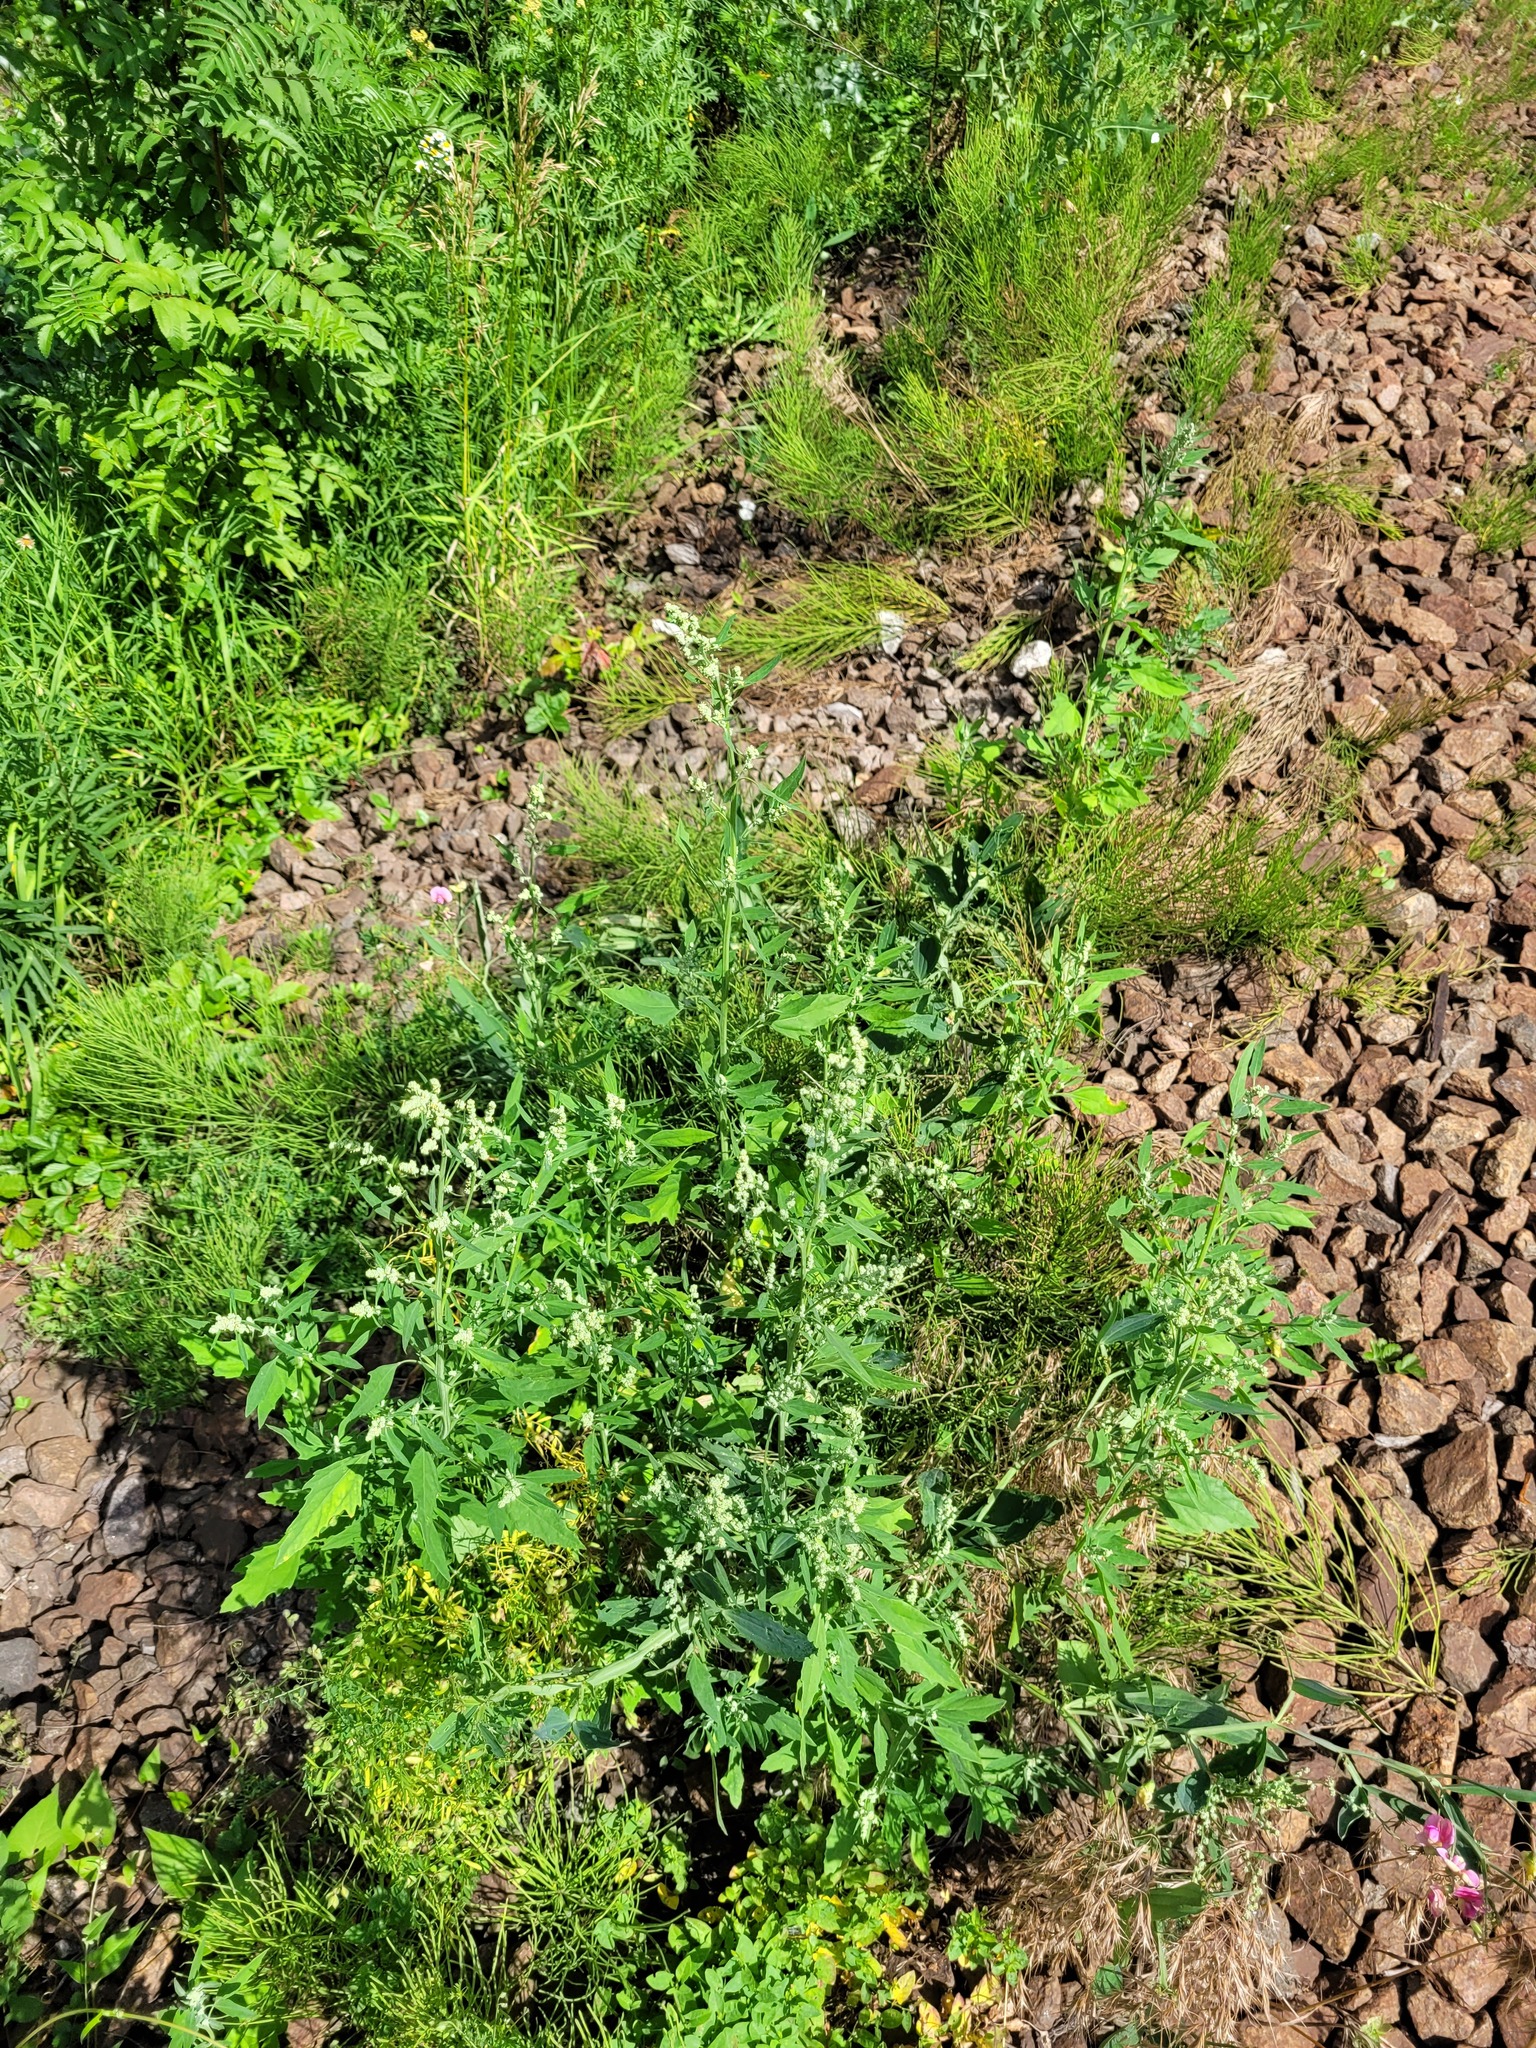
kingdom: Plantae
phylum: Tracheophyta
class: Magnoliopsida
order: Caryophyllales
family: Amaranthaceae
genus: Chenopodium
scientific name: Chenopodium album
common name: Fat-hen
